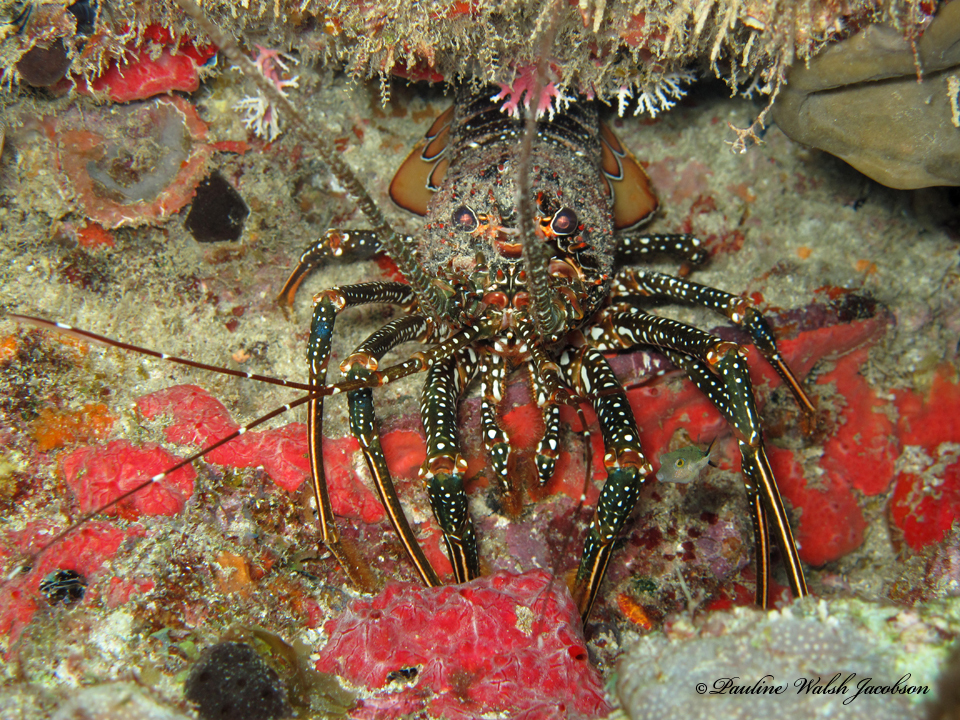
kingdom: Animalia
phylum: Arthropoda
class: Malacostraca
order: Decapoda
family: Palinuridae
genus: Panulirus
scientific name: Panulirus guttatus
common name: Spotted spiny lobster
